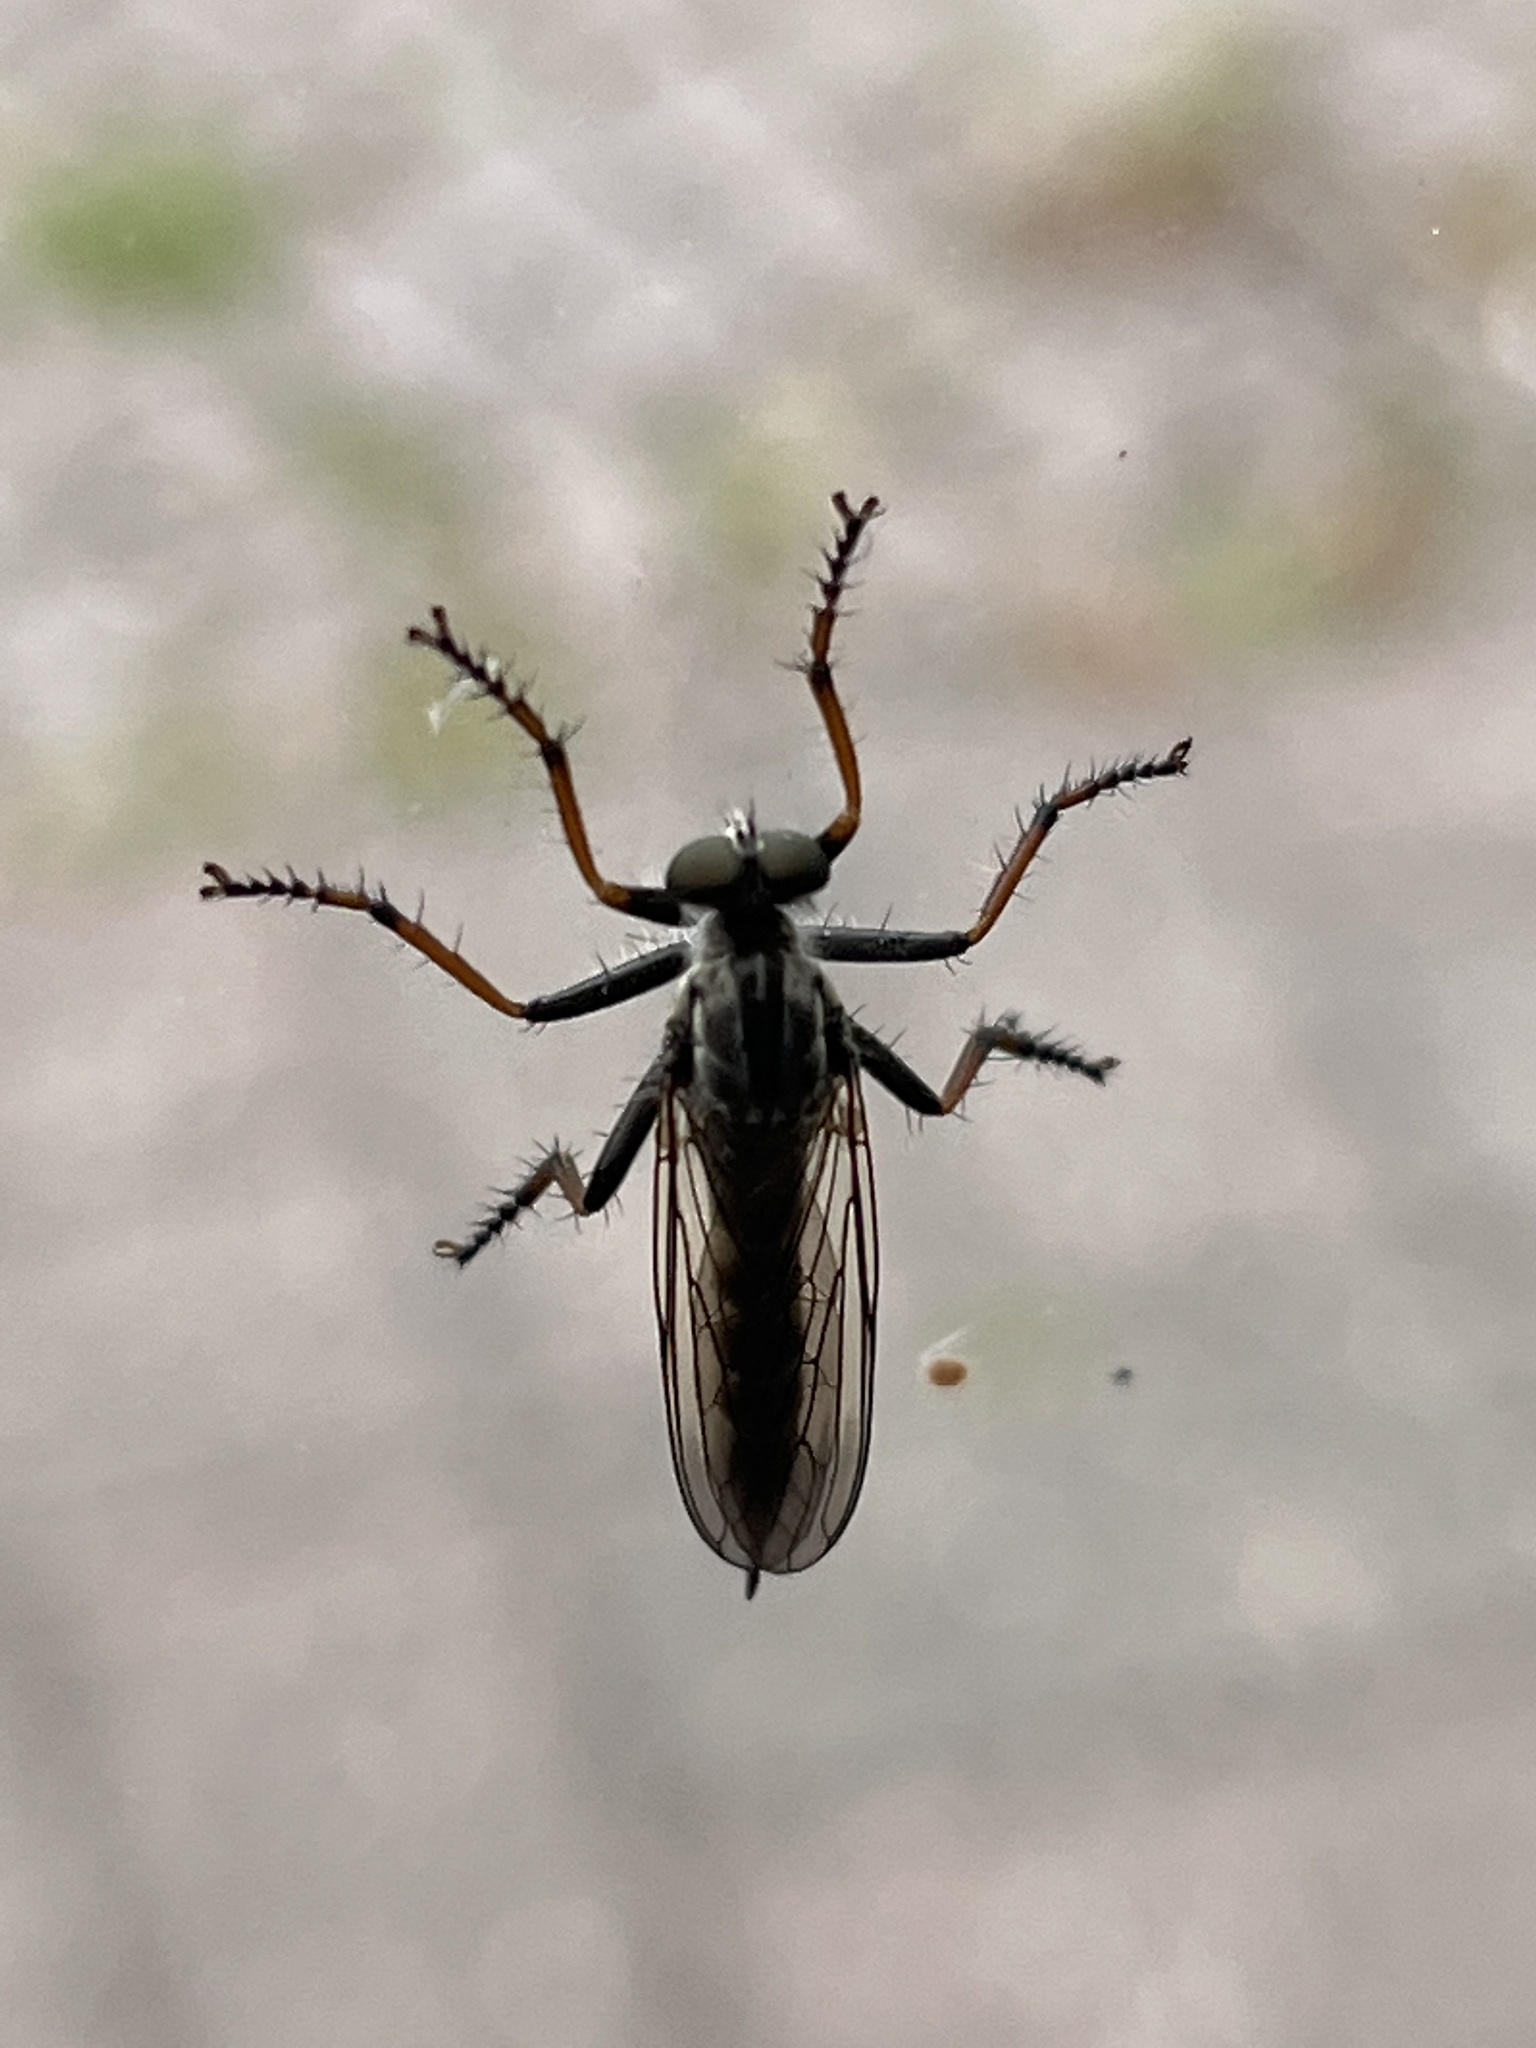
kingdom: Animalia
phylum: Arthropoda
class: Insecta
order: Diptera
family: Asilidae
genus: Paritamus
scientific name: Paritamus geniculatus
